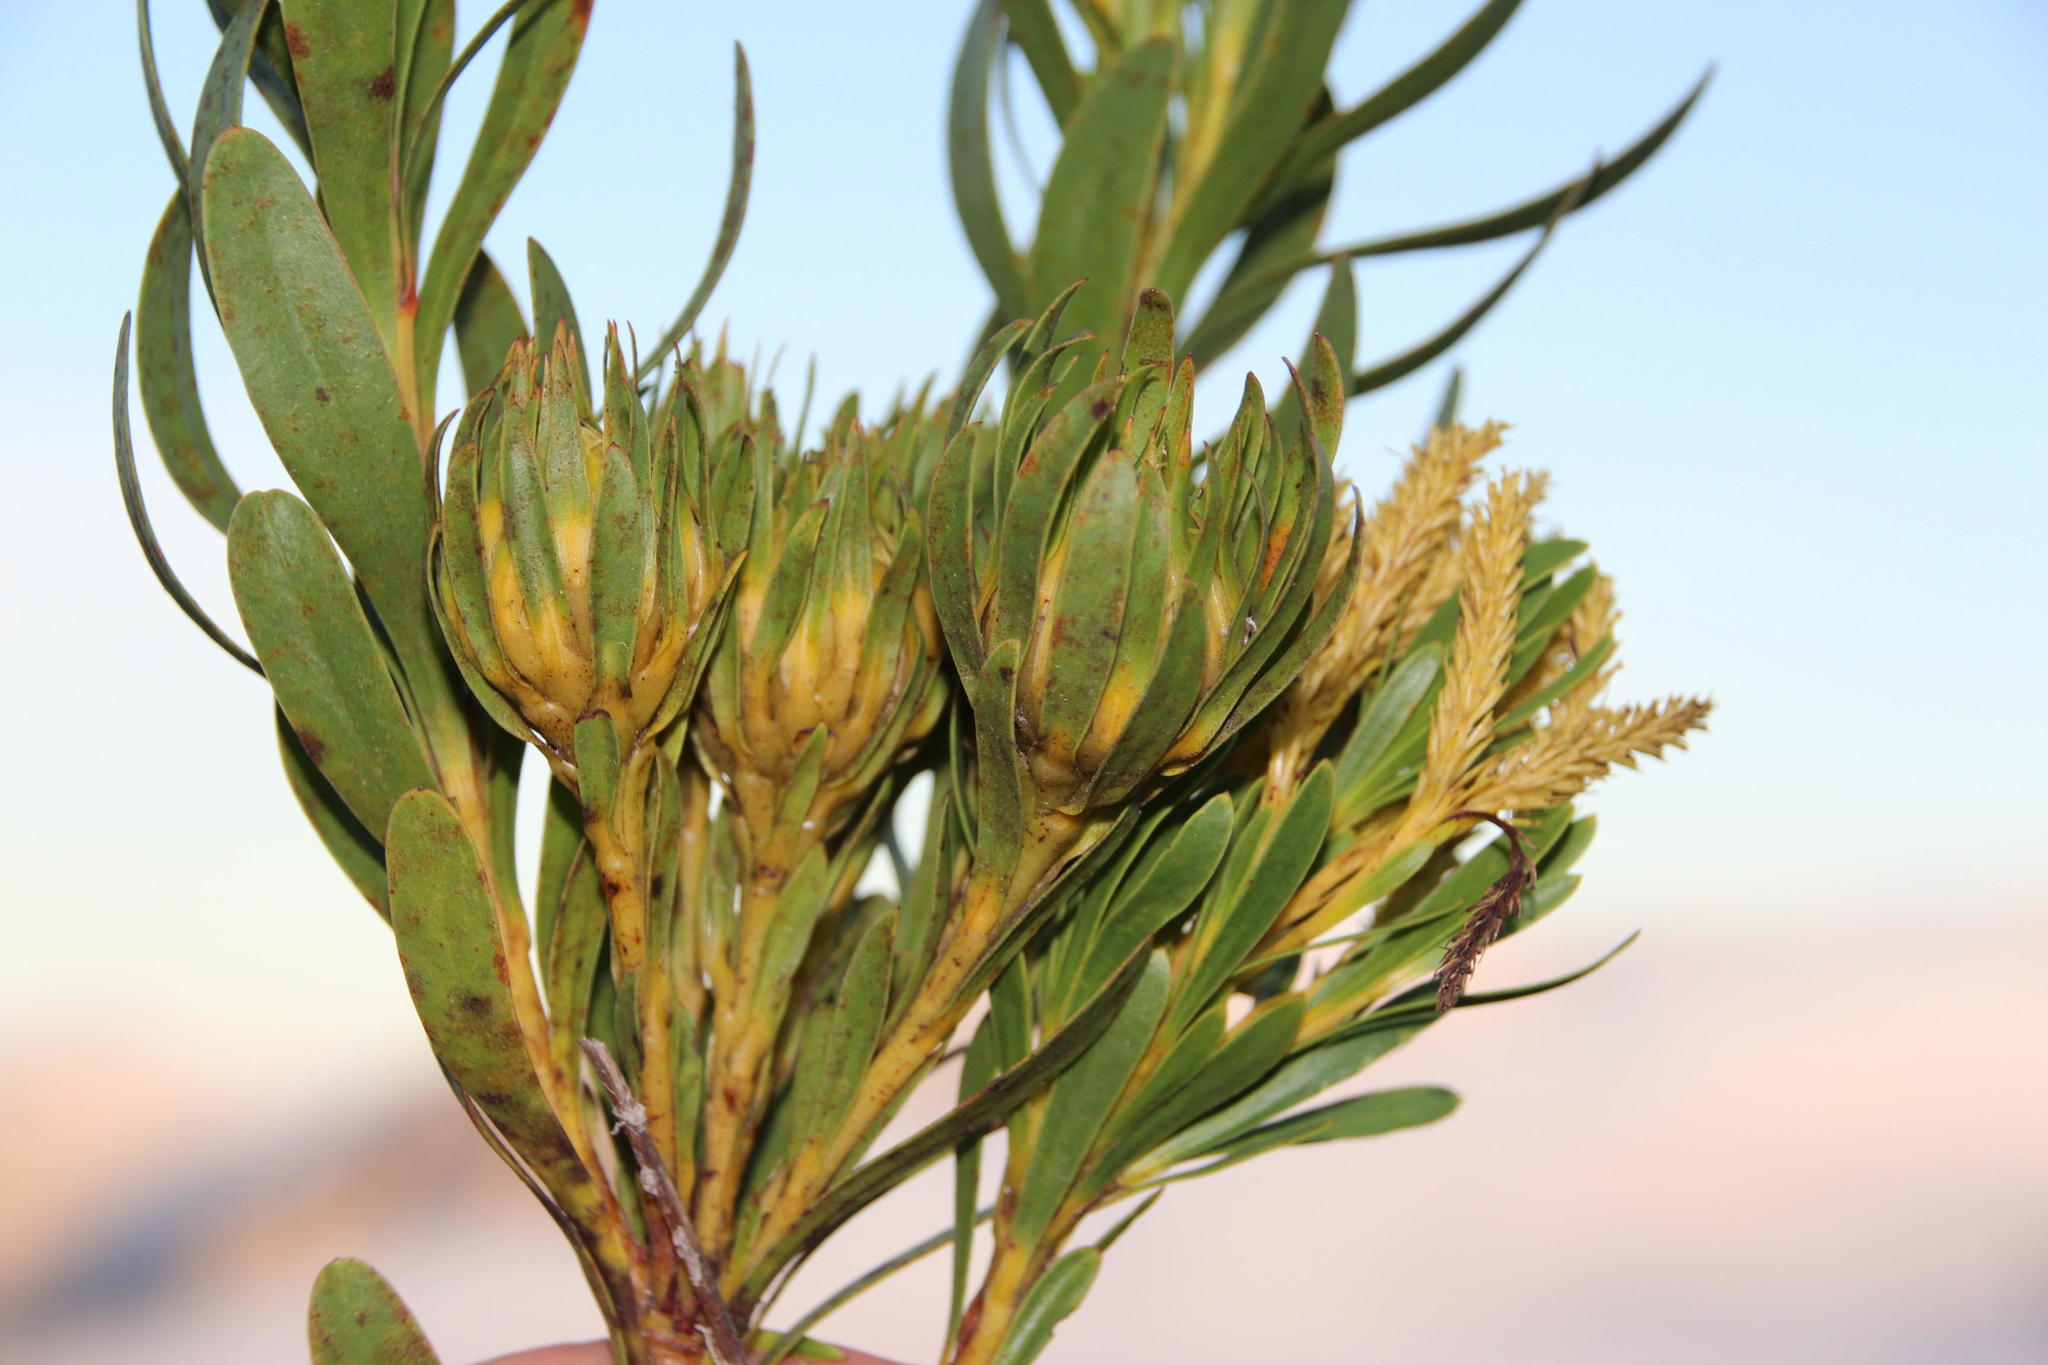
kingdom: Plantae
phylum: Tracheophyta
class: Magnoliopsida
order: Proteales
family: Proteaceae
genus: Aulax
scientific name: Aulax umbellata
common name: Broad-leaf featherbush
